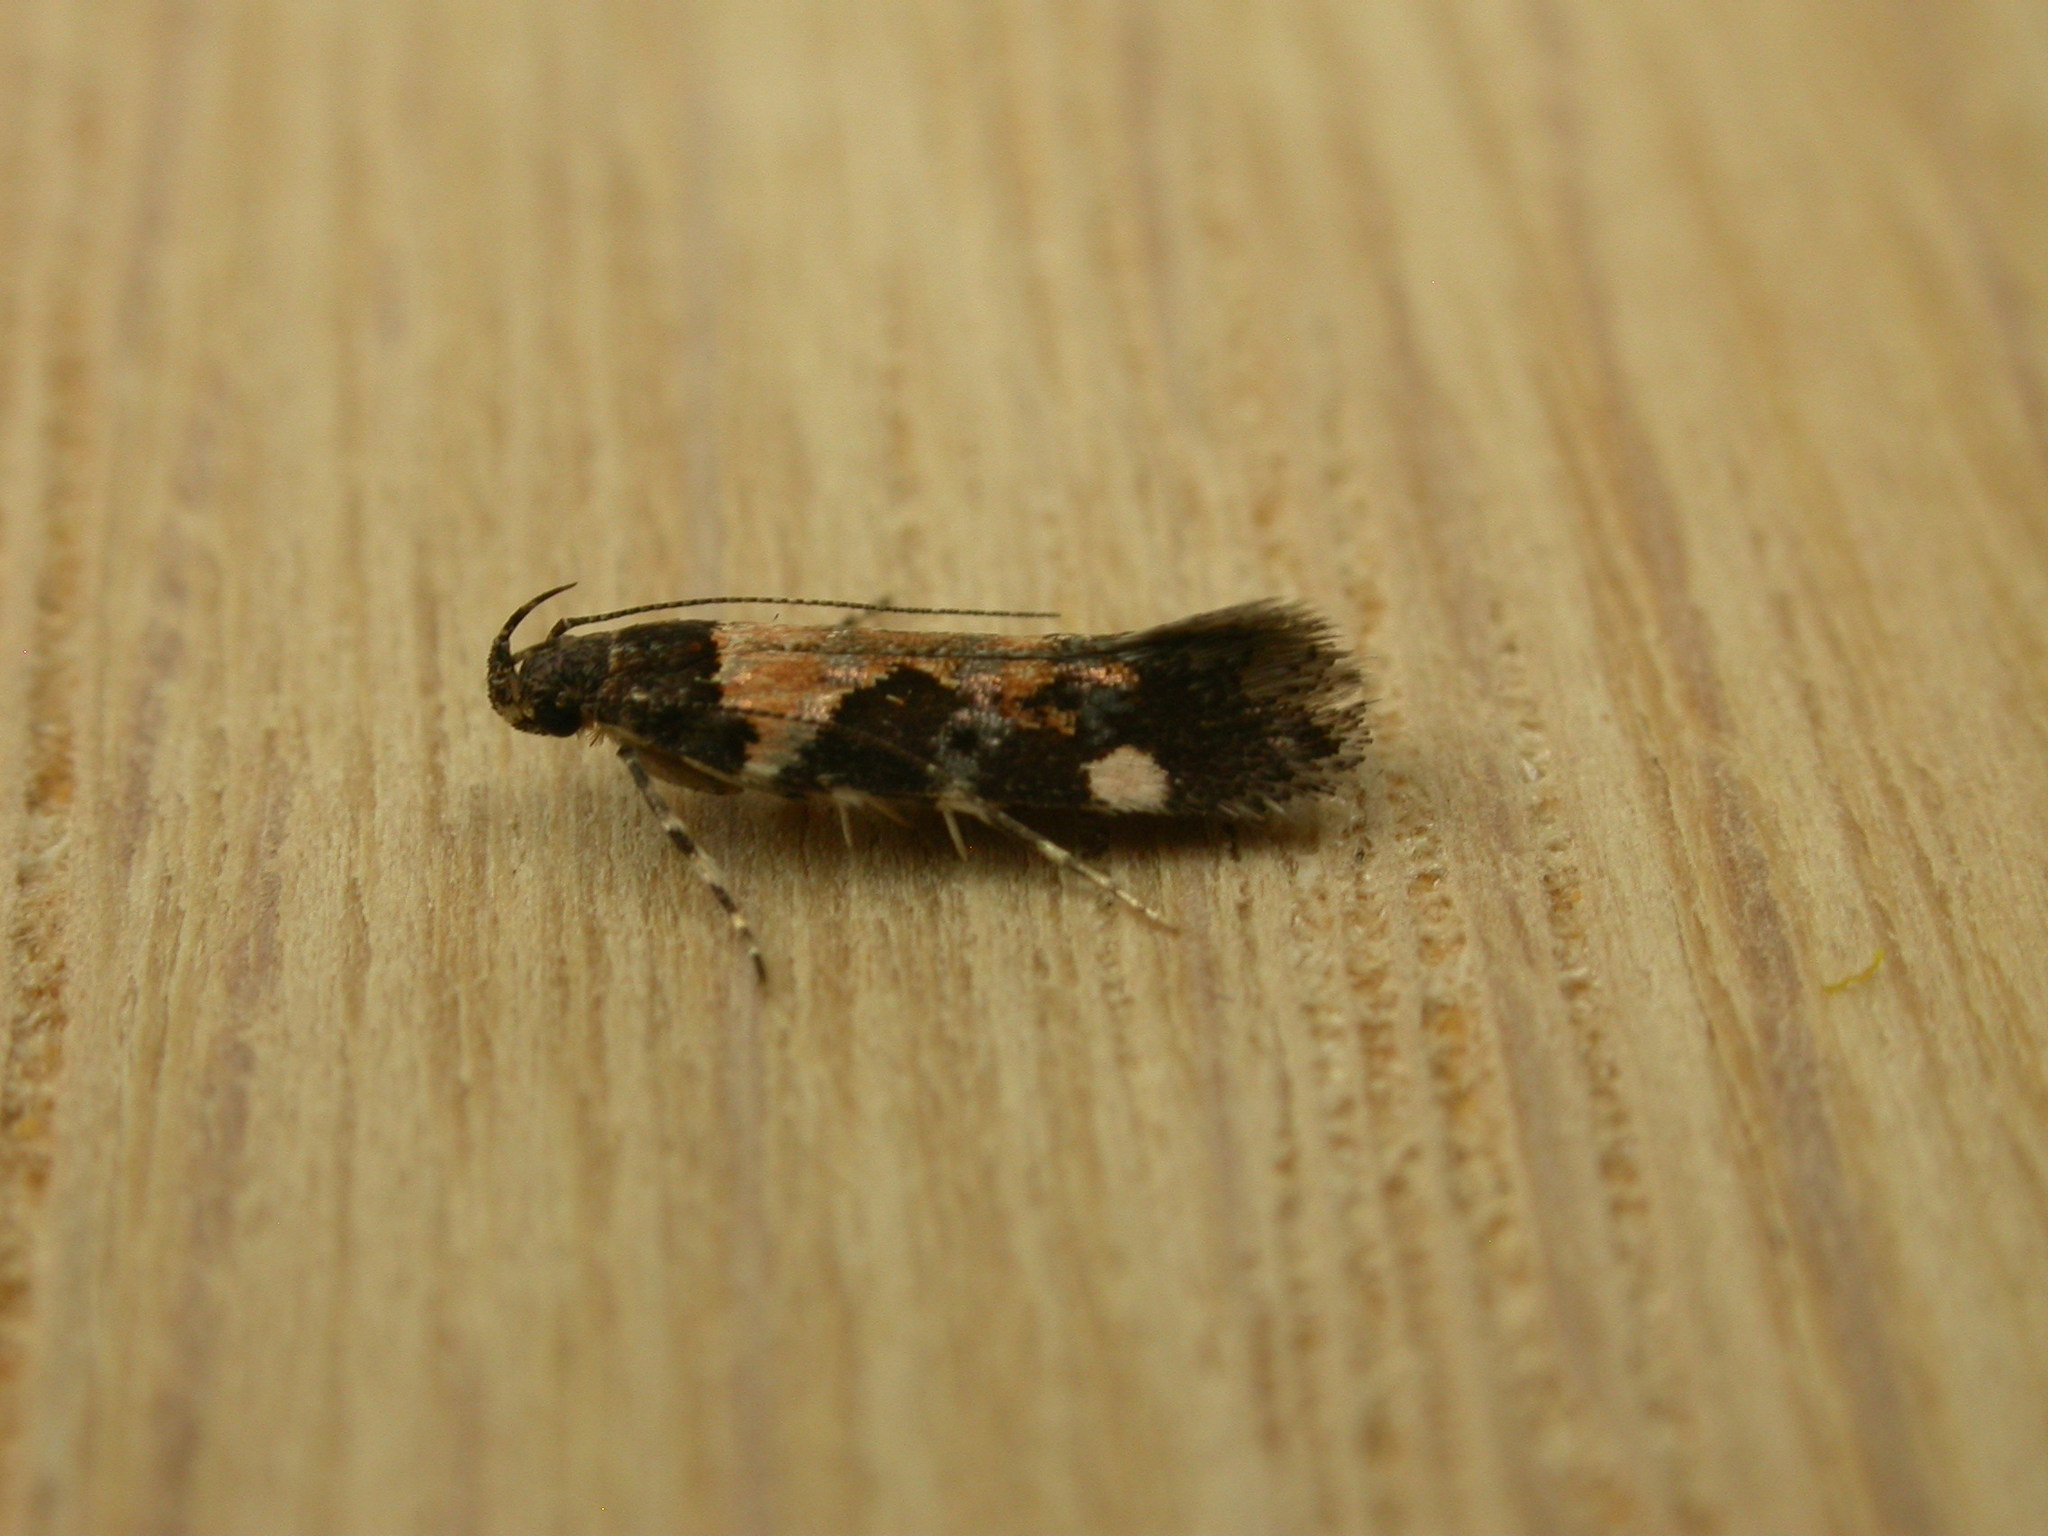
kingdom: Animalia
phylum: Arthropoda
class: Insecta
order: Lepidoptera
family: Gelechiidae
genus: Stegasta
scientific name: Stegasta variana
